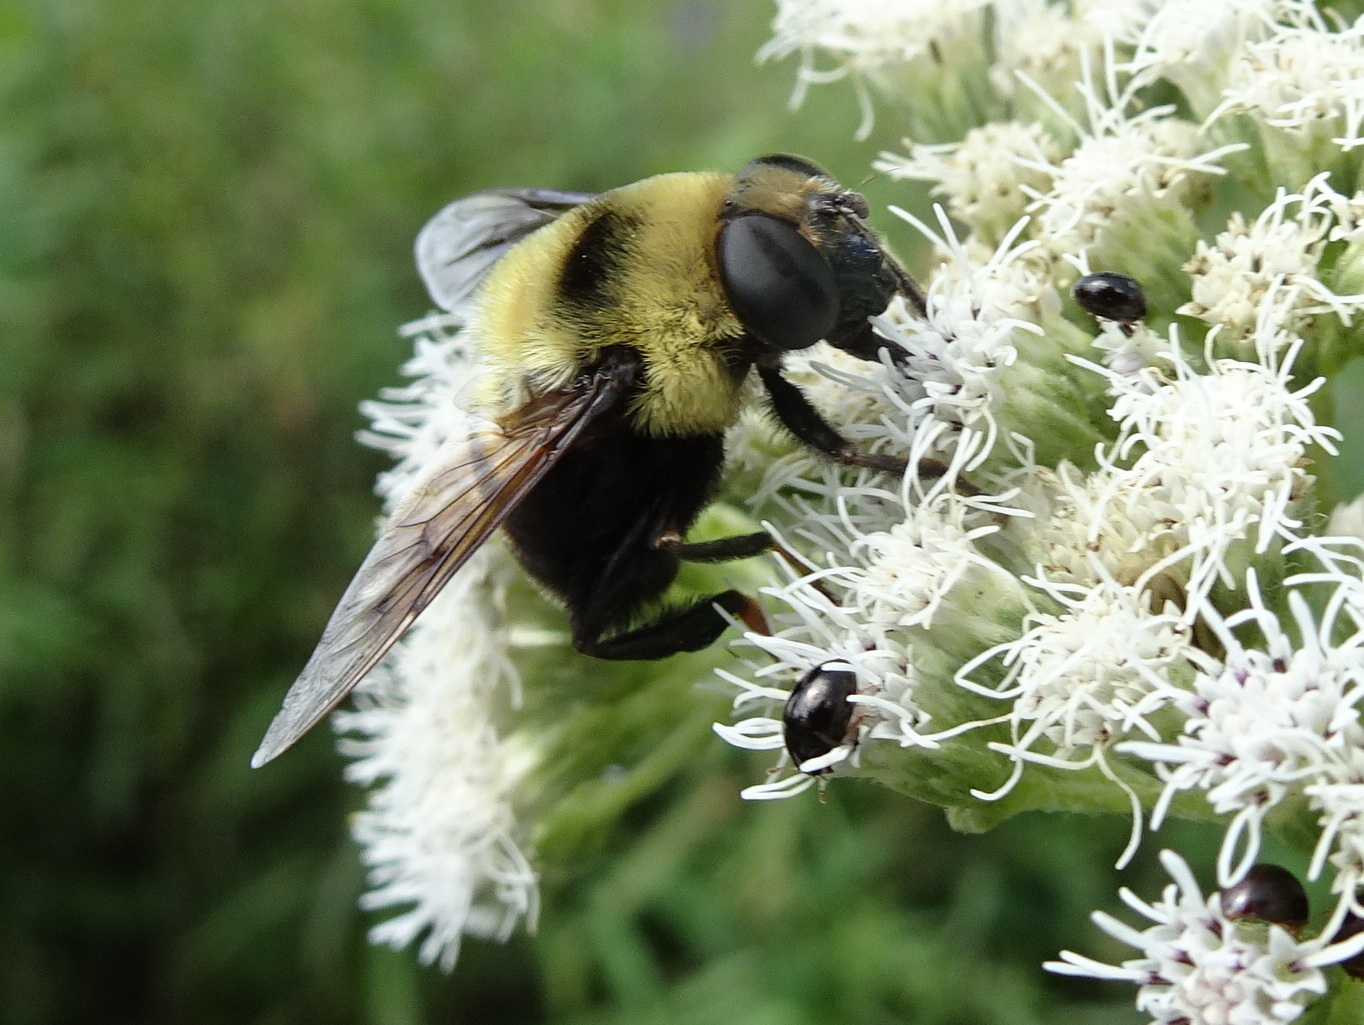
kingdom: Animalia
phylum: Arthropoda
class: Insecta
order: Diptera
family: Syrphidae
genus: Eristalis
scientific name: Eristalis flavipes
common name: Orange-legged drone fly
